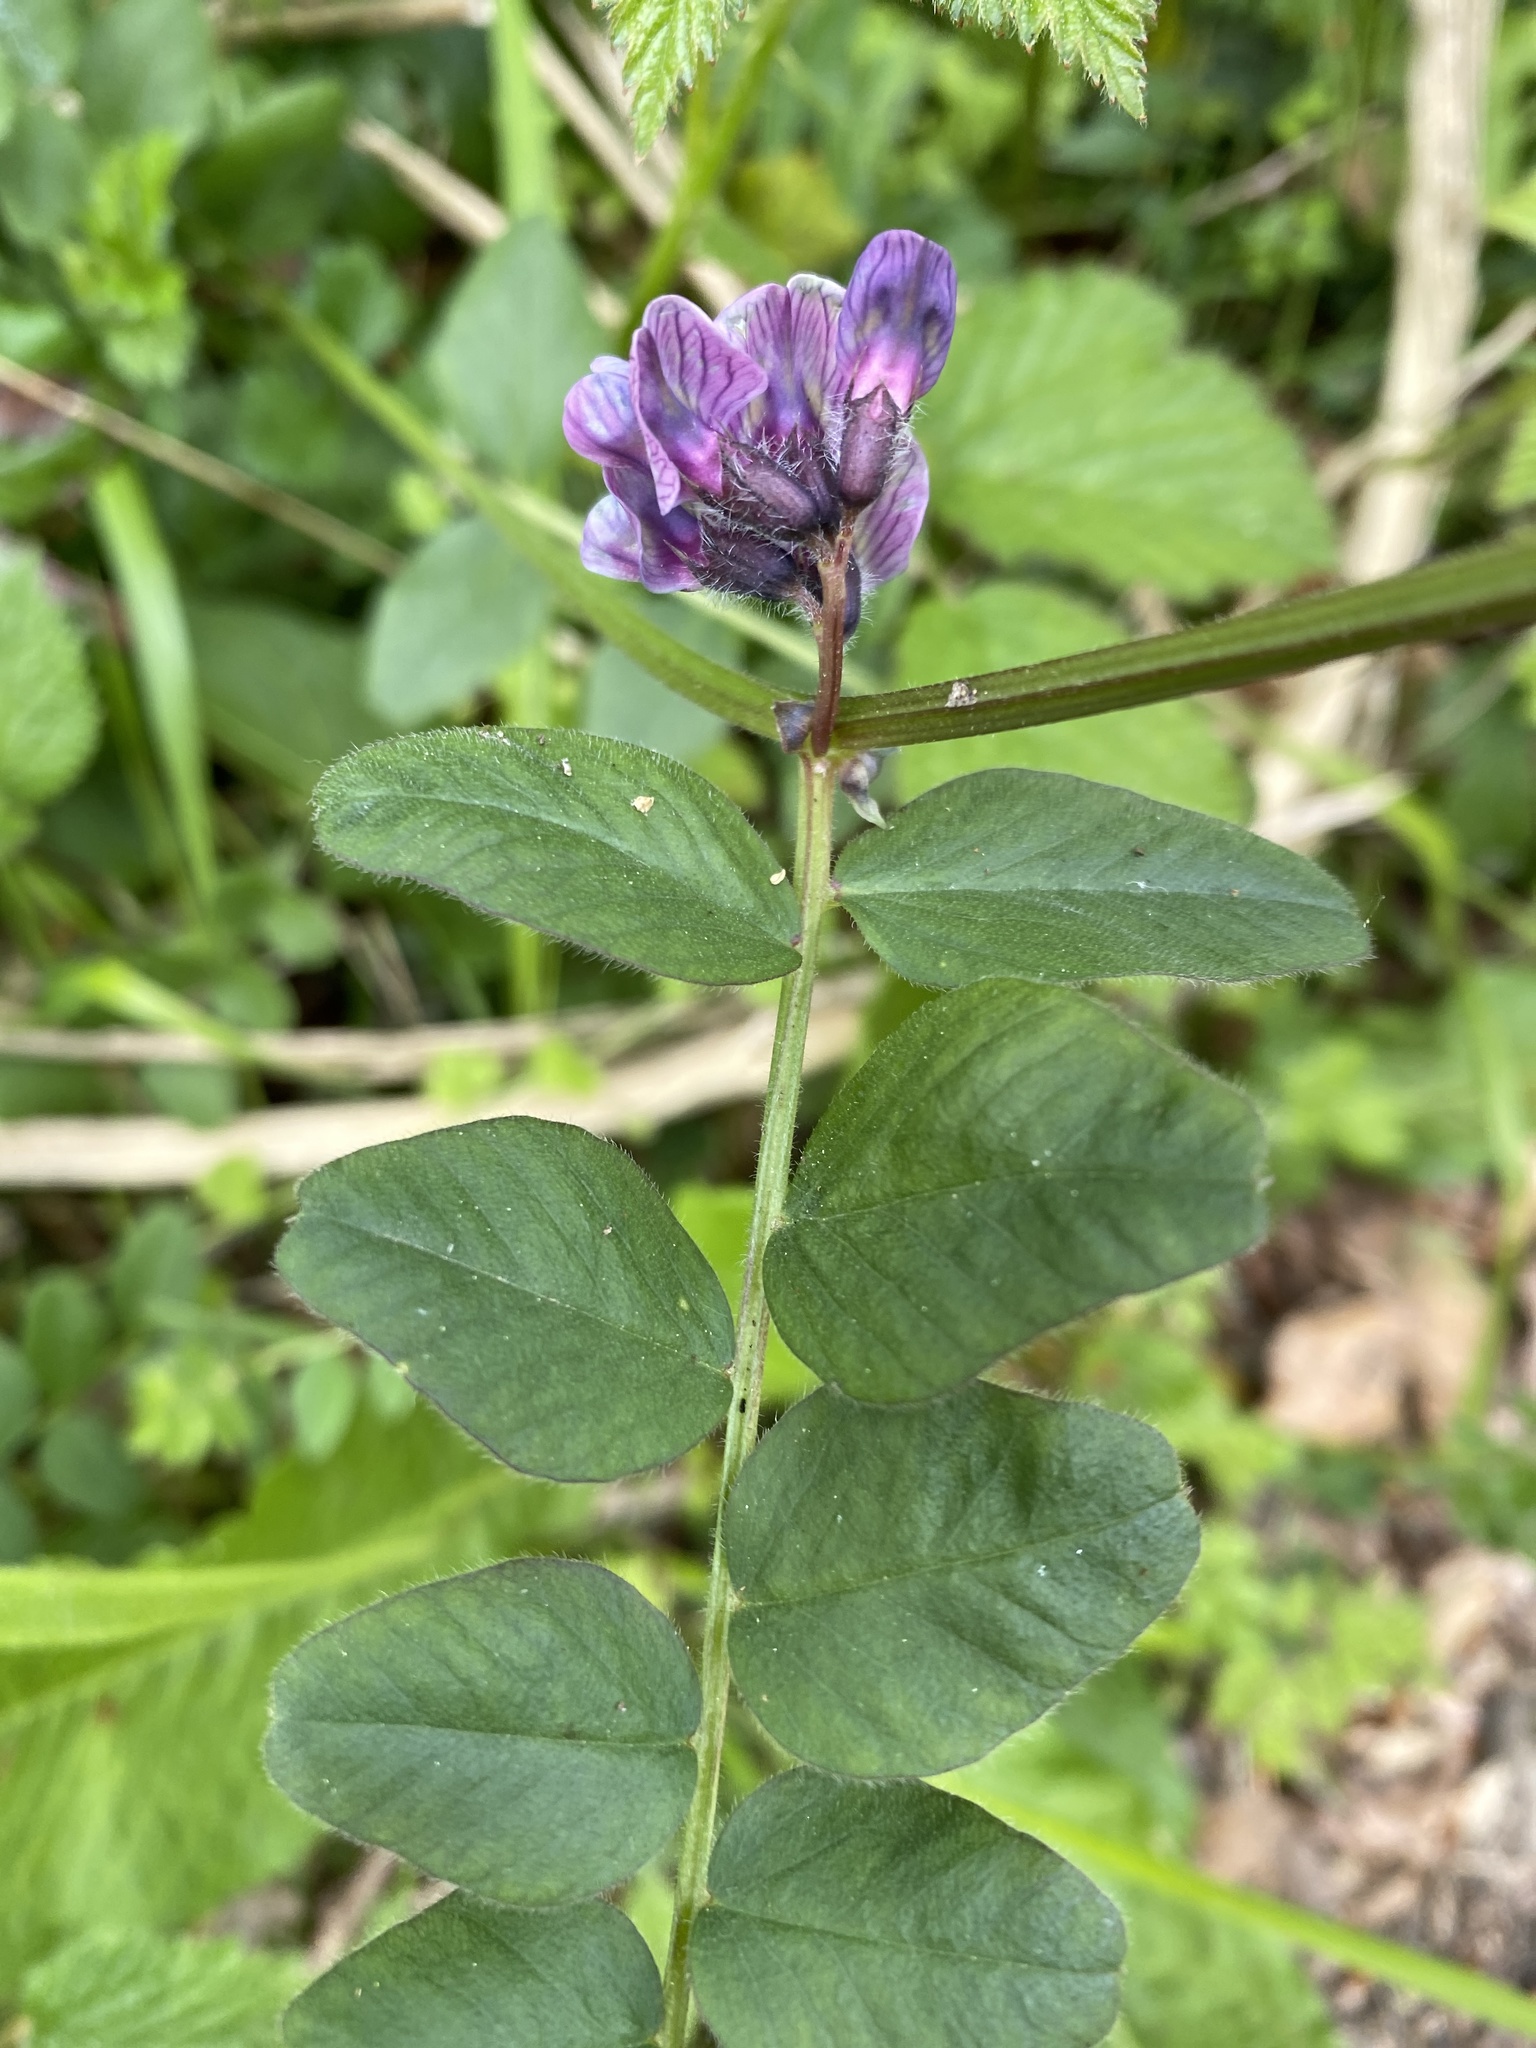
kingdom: Plantae
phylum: Tracheophyta
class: Magnoliopsida
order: Fabales
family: Fabaceae
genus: Vicia
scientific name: Vicia sepium
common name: Bush vetch
